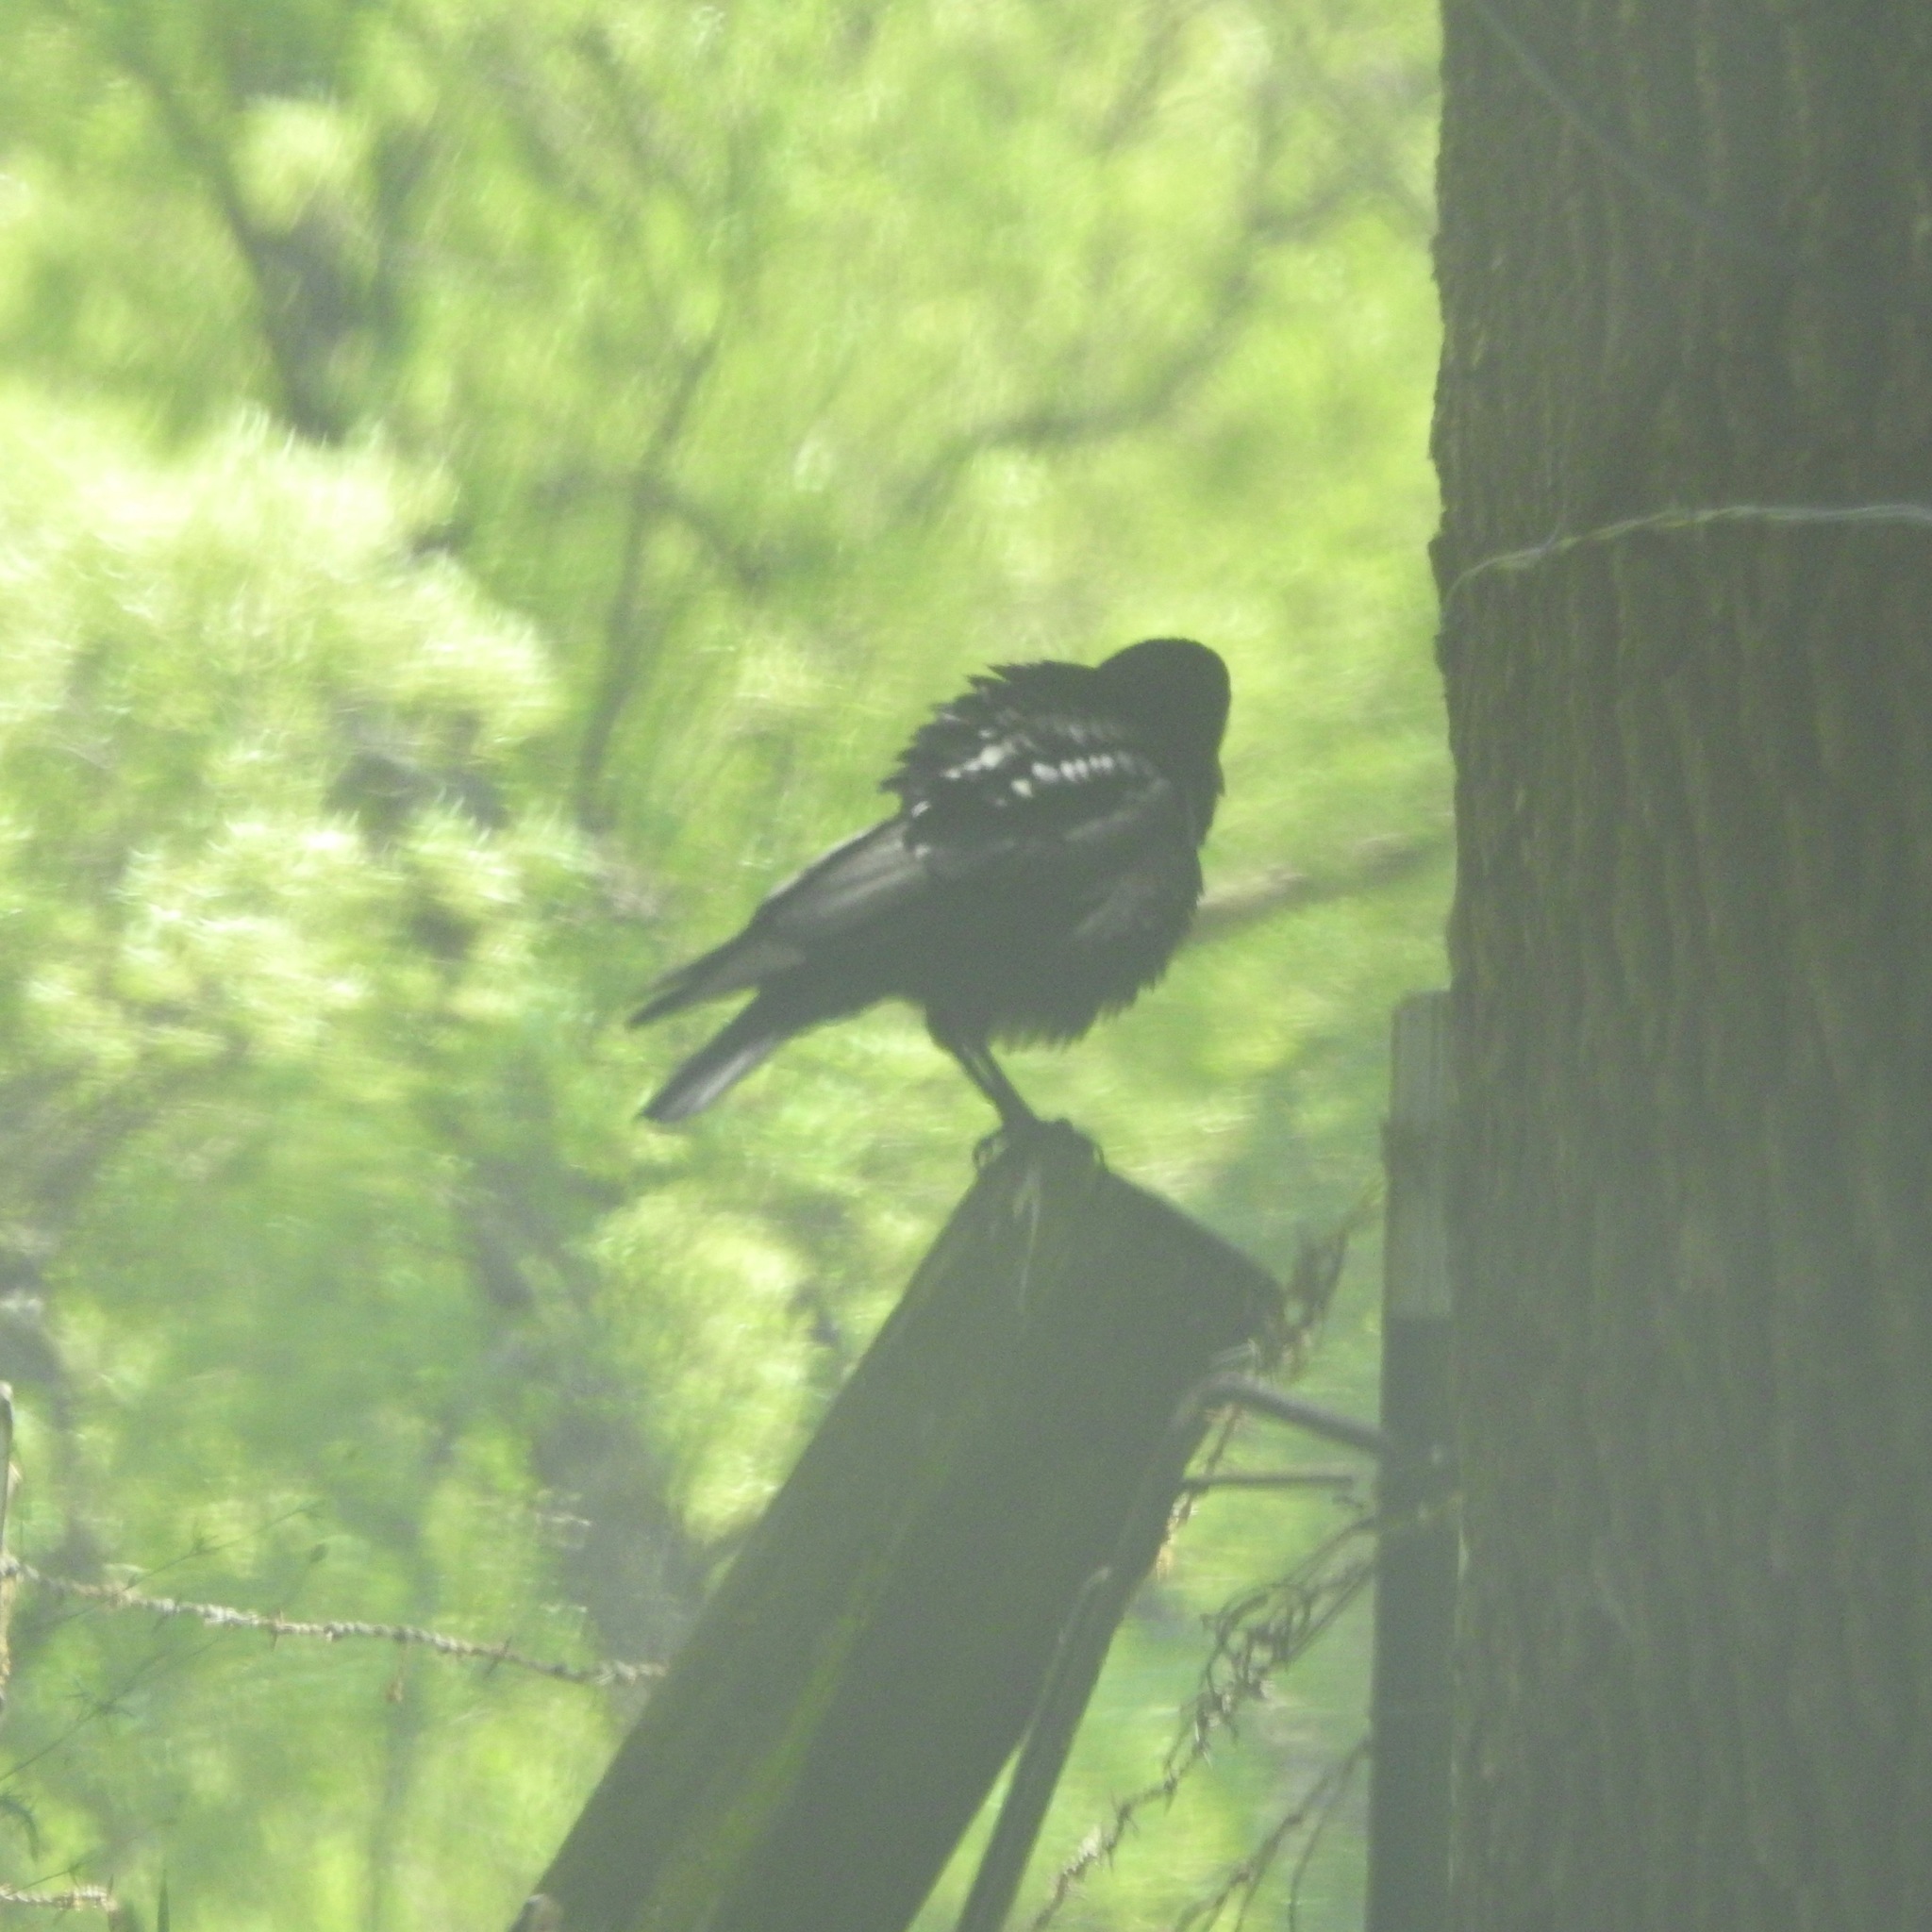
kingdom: Animalia
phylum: Chordata
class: Aves
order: Passeriformes
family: Corvidae
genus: Corvus
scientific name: Corvus corax
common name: Common raven
